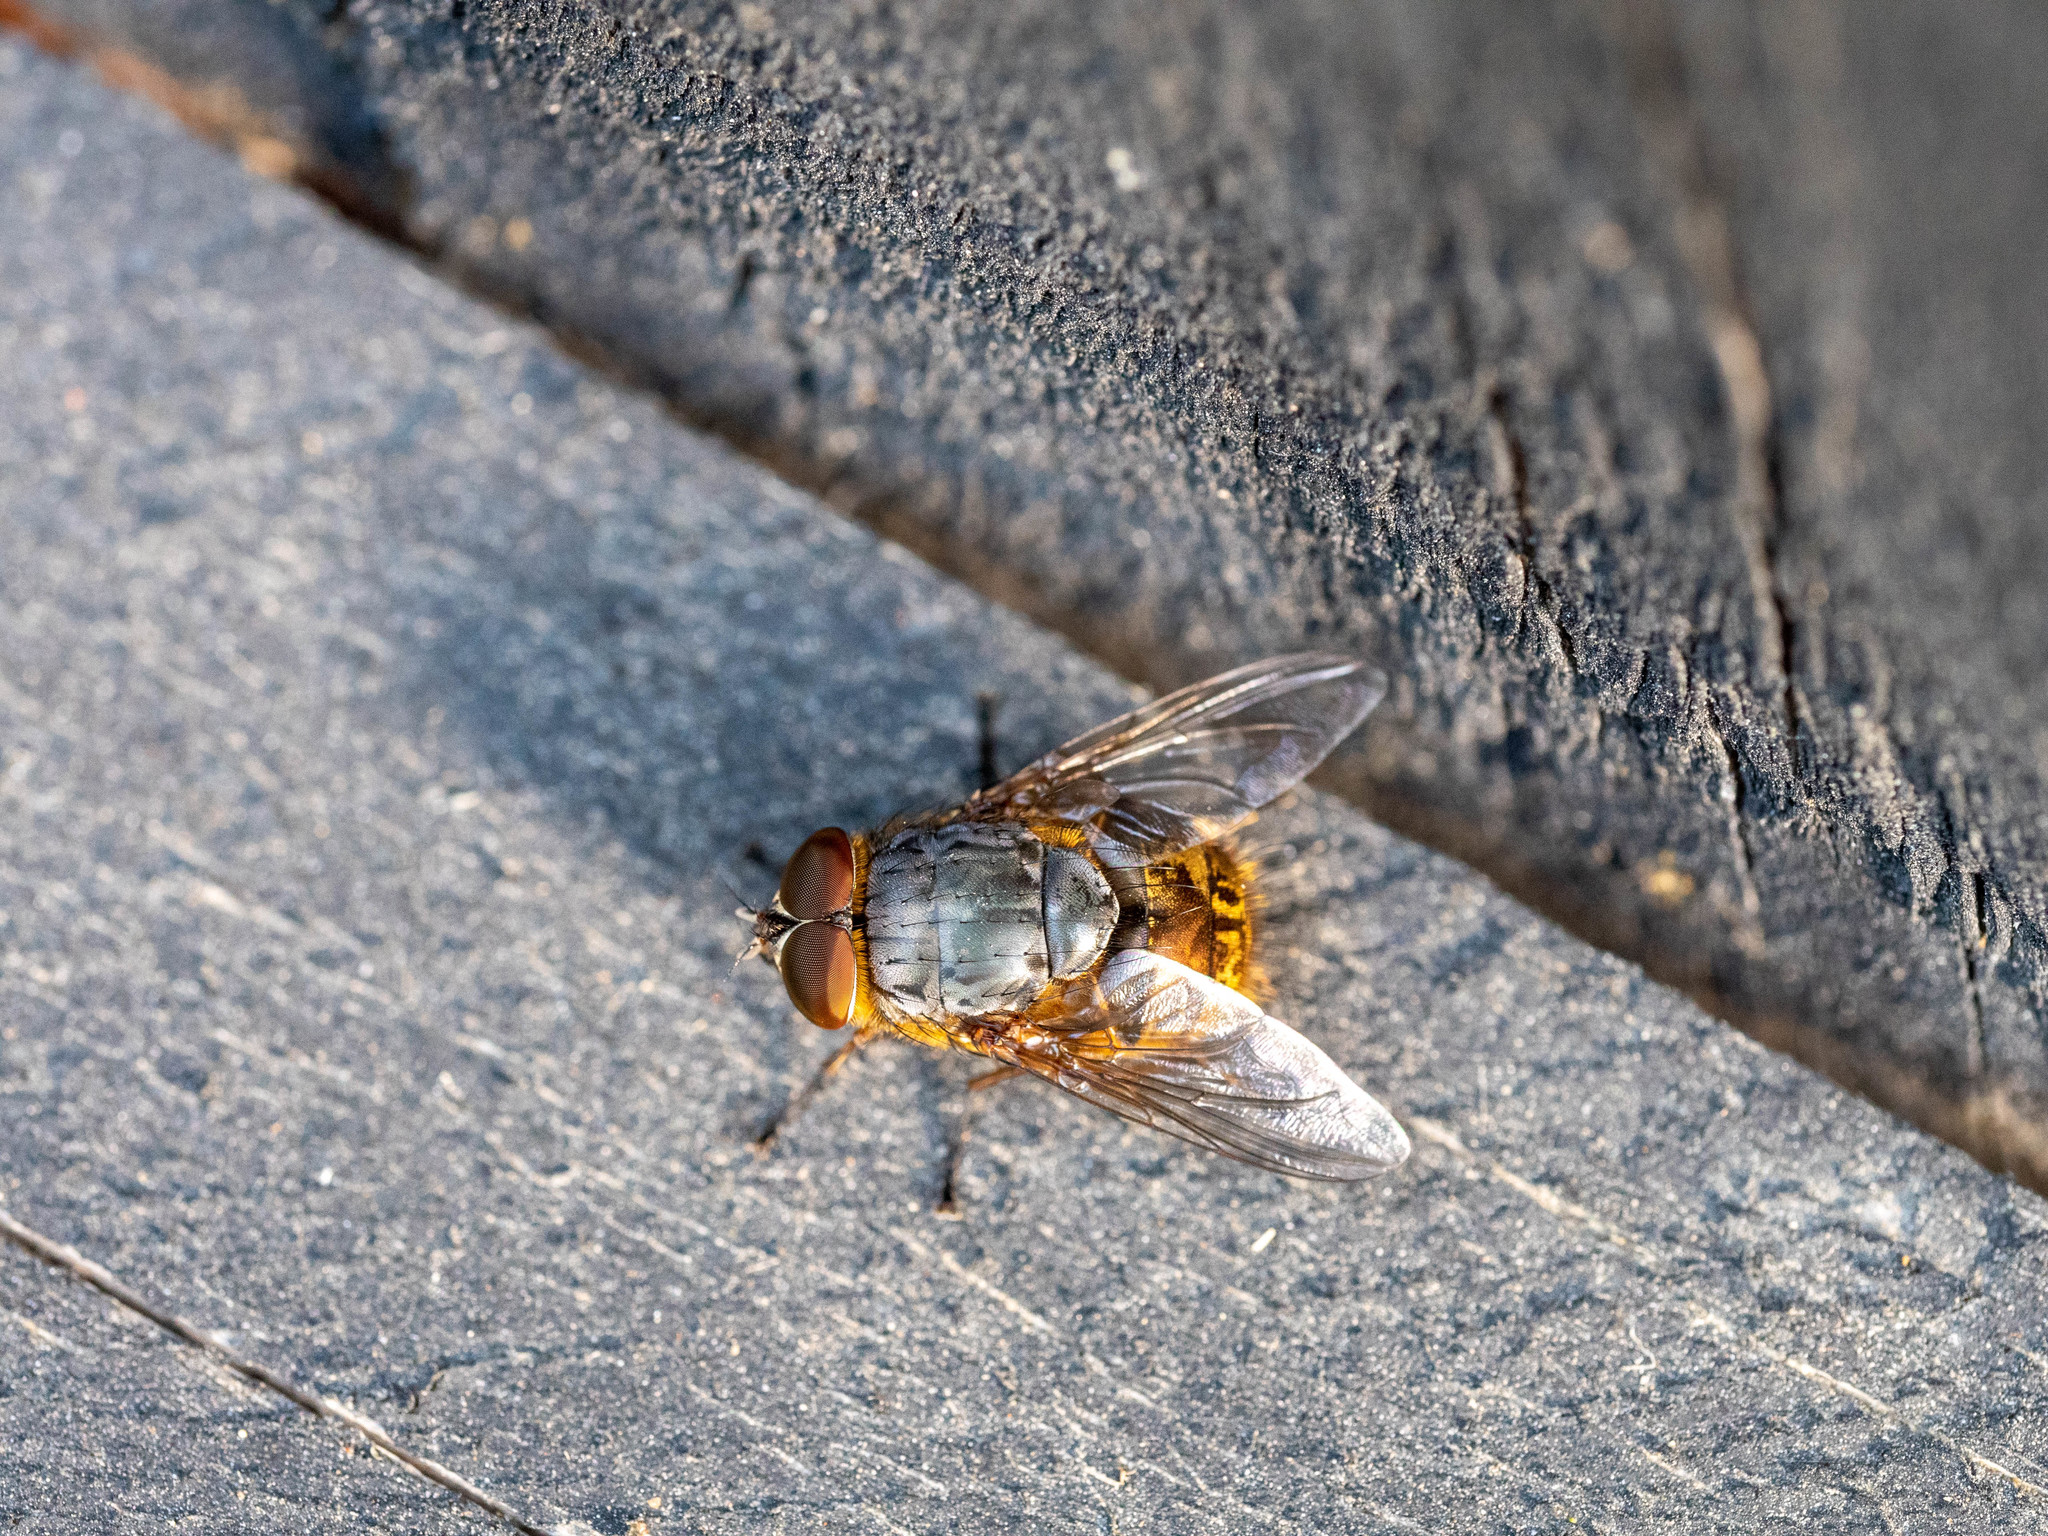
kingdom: Animalia
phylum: Arthropoda
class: Insecta
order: Diptera
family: Calliphoridae
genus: Calliphora
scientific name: Calliphora stygia
